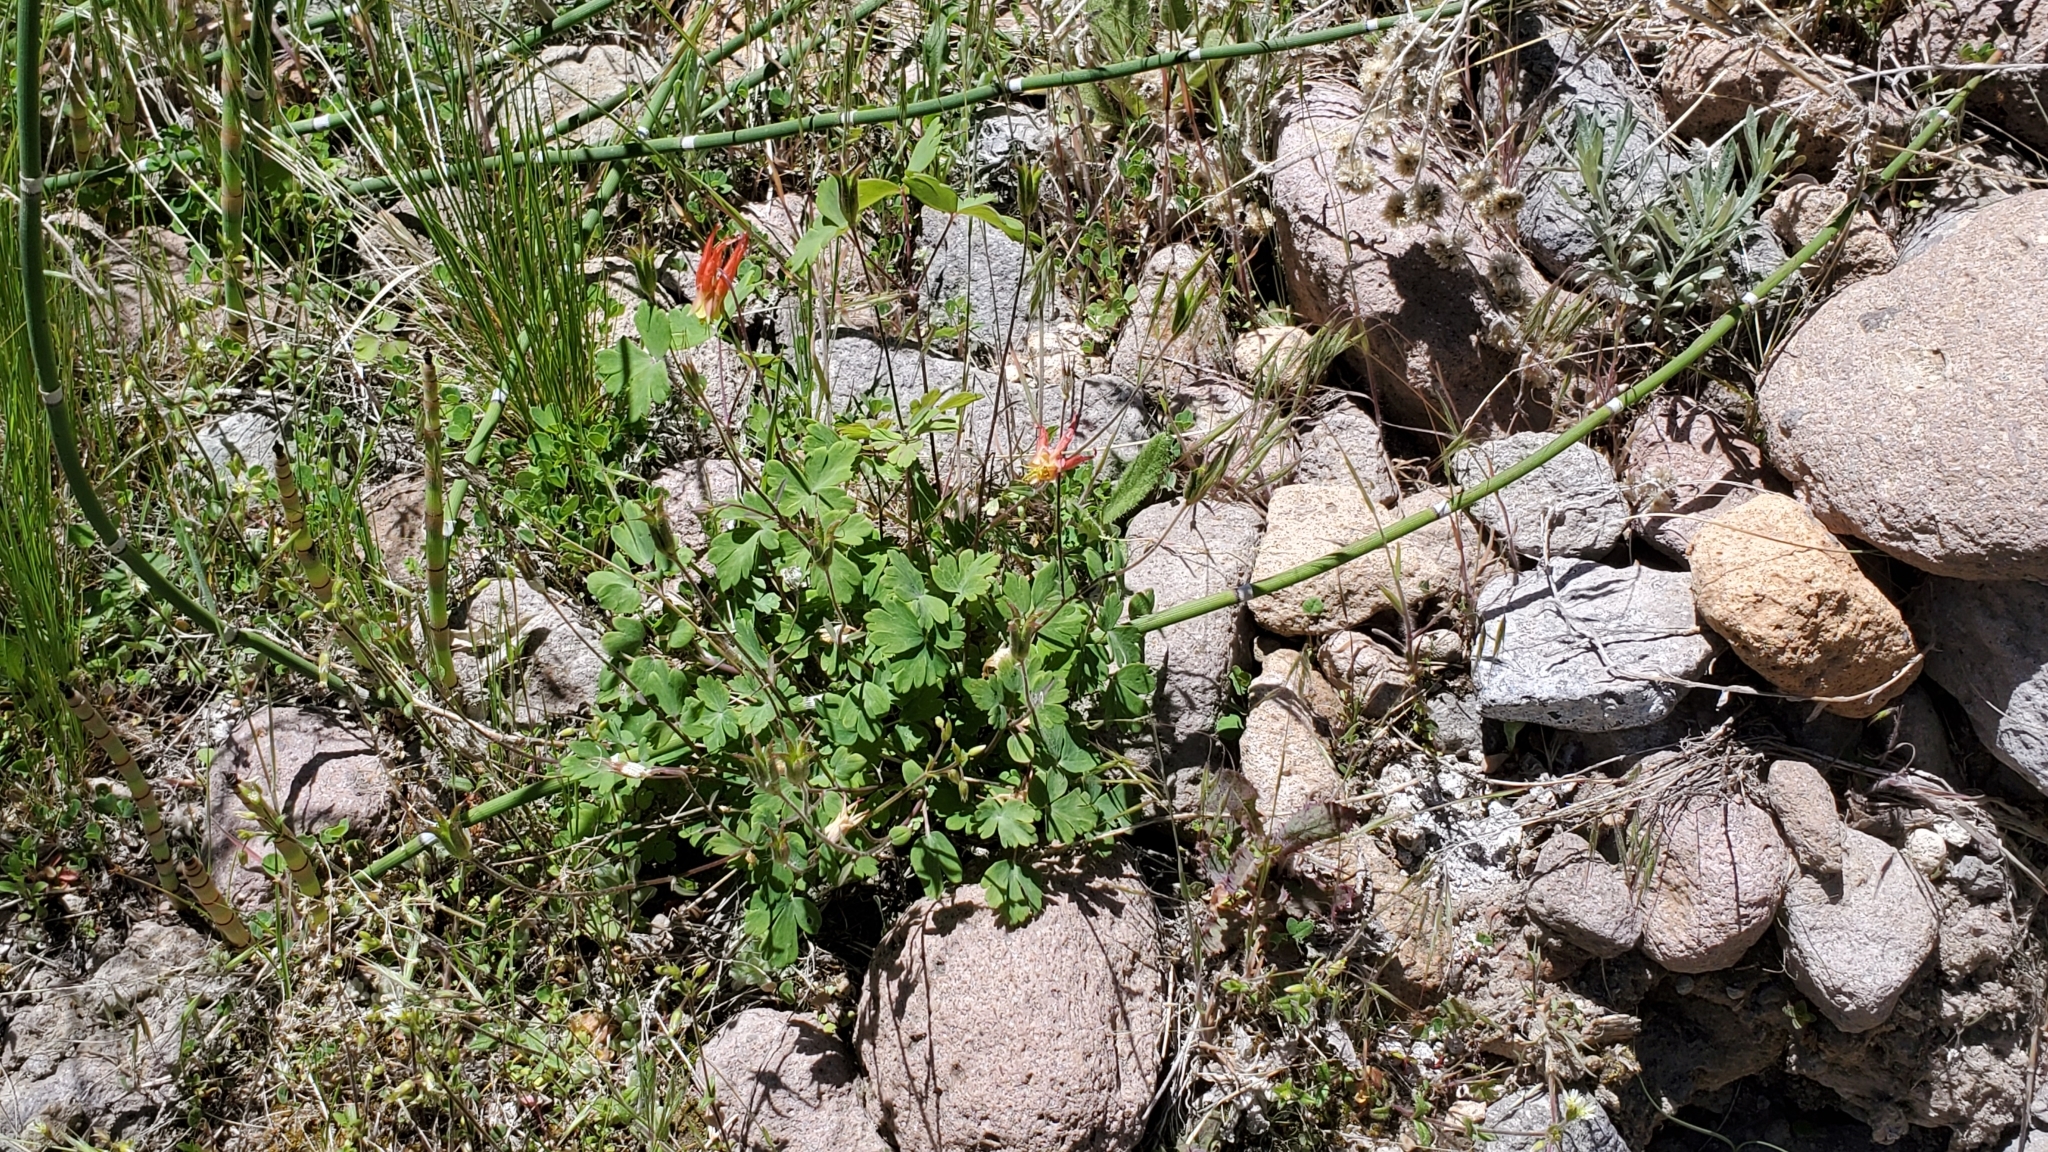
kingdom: Plantae
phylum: Tracheophyta
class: Magnoliopsida
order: Ranunculales
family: Ranunculaceae
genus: Aquilegia
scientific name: Aquilegia elegantula
